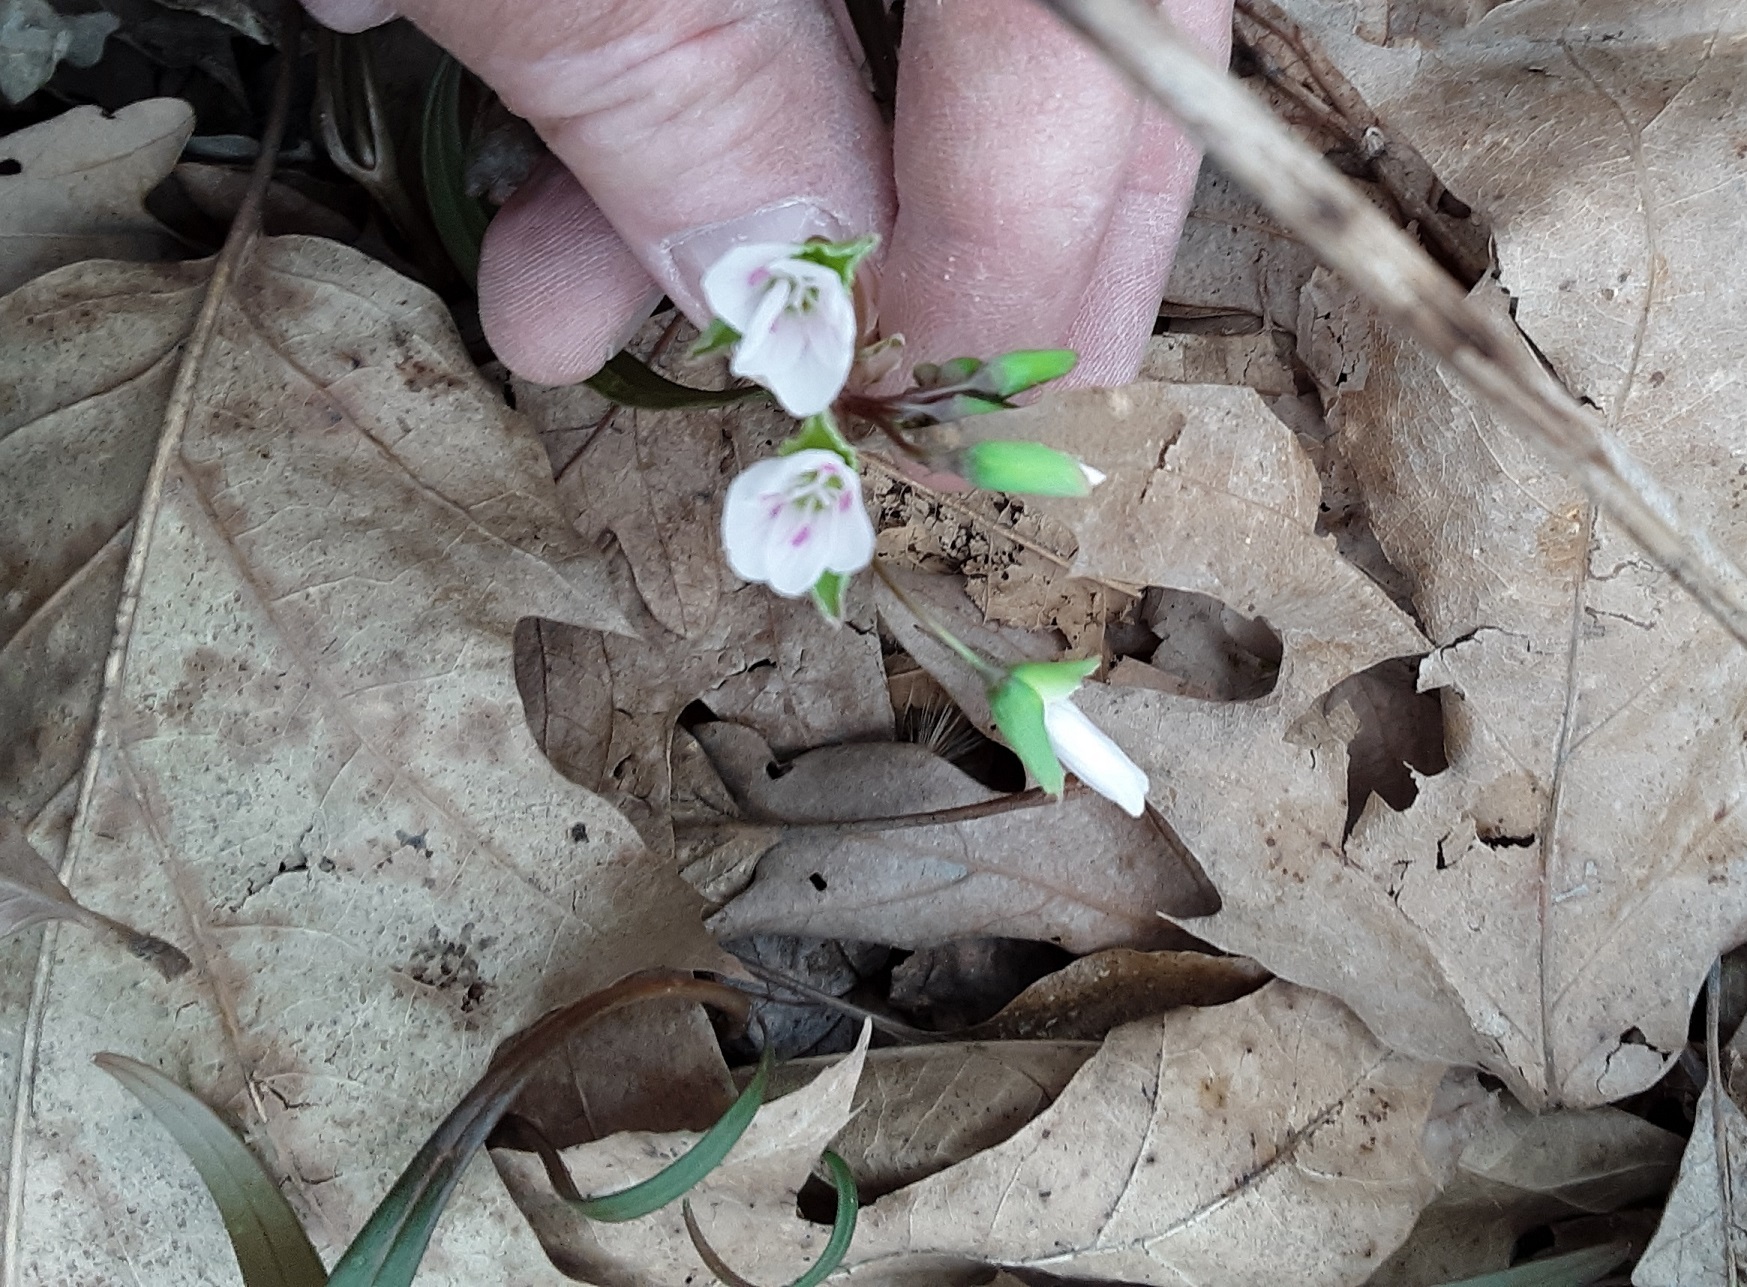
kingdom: Plantae
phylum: Tracheophyta
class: Magnoliopsida
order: Caryophyllales
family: Montiaceae
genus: Claytonia
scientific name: Claytonia virginica
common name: Virginia springbeauty
